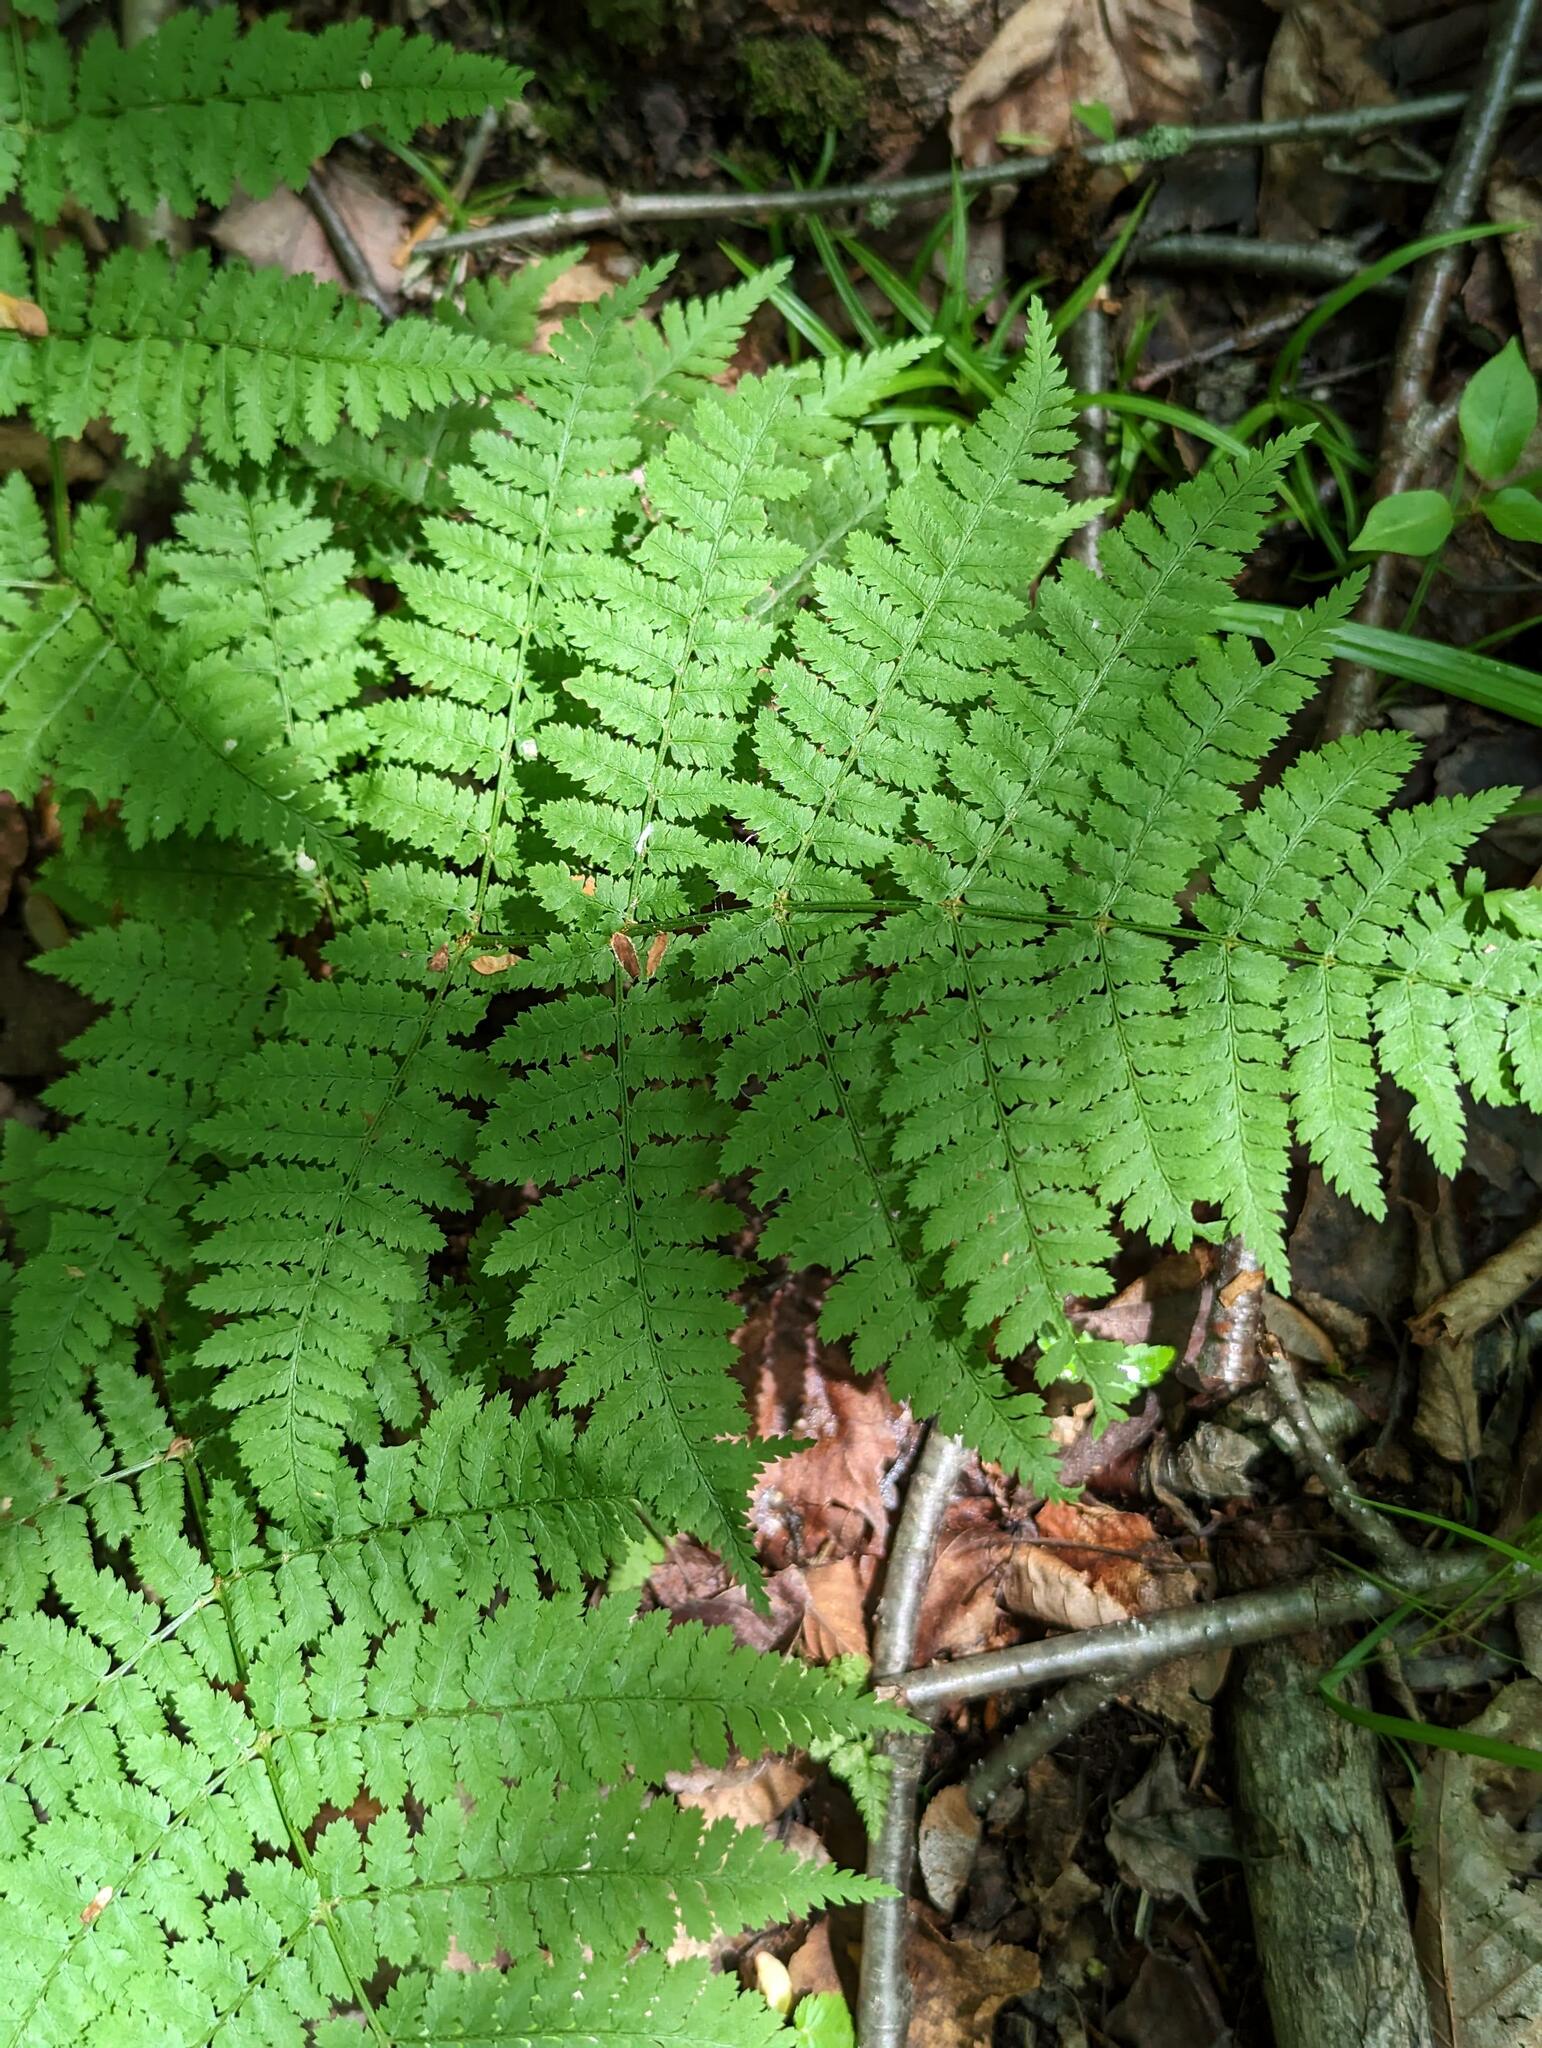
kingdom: Plantae
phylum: Tracheophyta
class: Polypodiopsida
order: Polypodiales
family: Dryopteridaceae
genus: Dryopteris
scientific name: Dryopteris intermedia
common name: Evergreen wood fern
